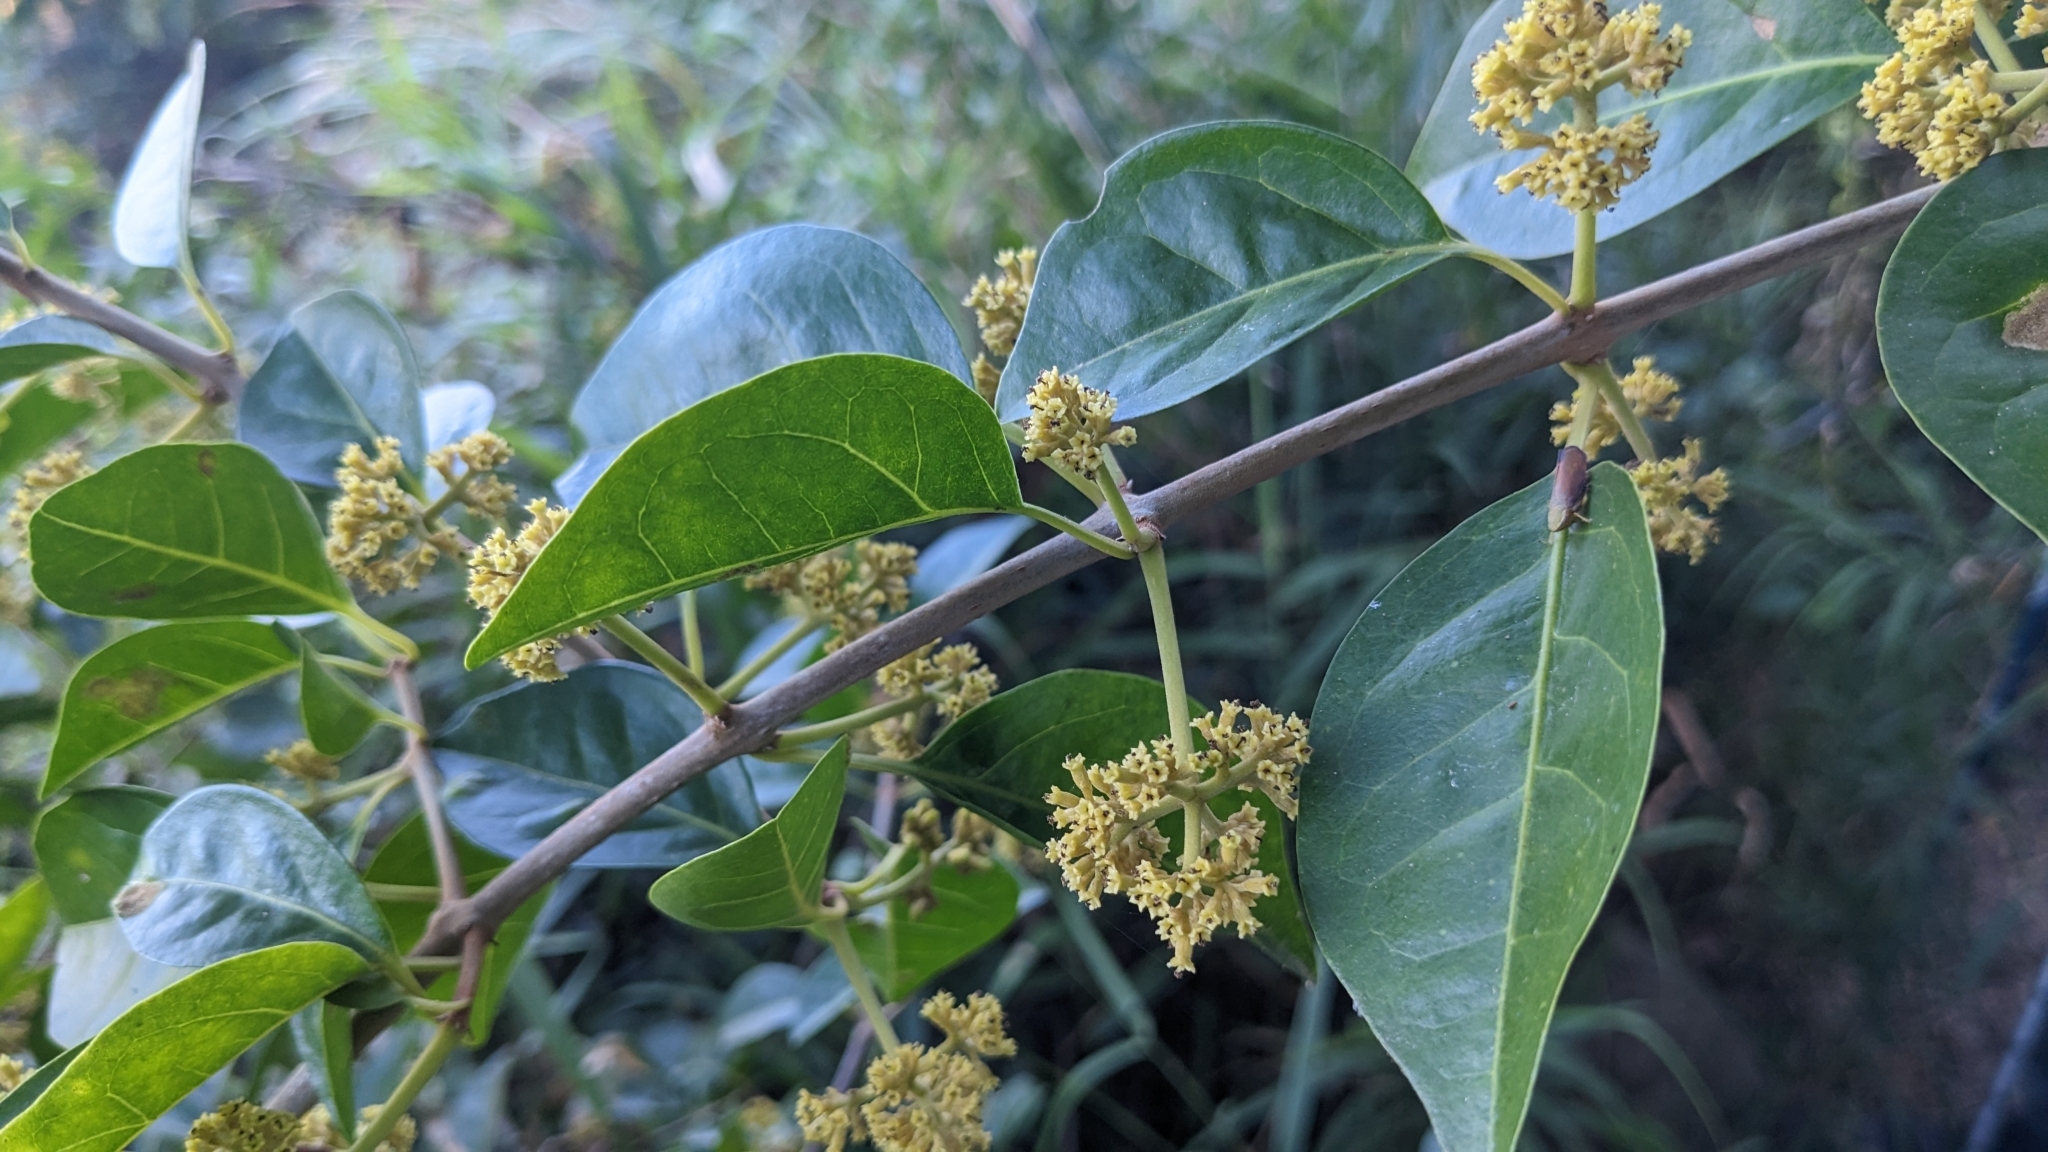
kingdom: Plantae
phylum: Tracheophyta
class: Magnoliopsida
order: Caryophyllales
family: Nyctaginaceae
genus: Pisonia
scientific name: Pisonia aculeata
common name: Cockspur vine
